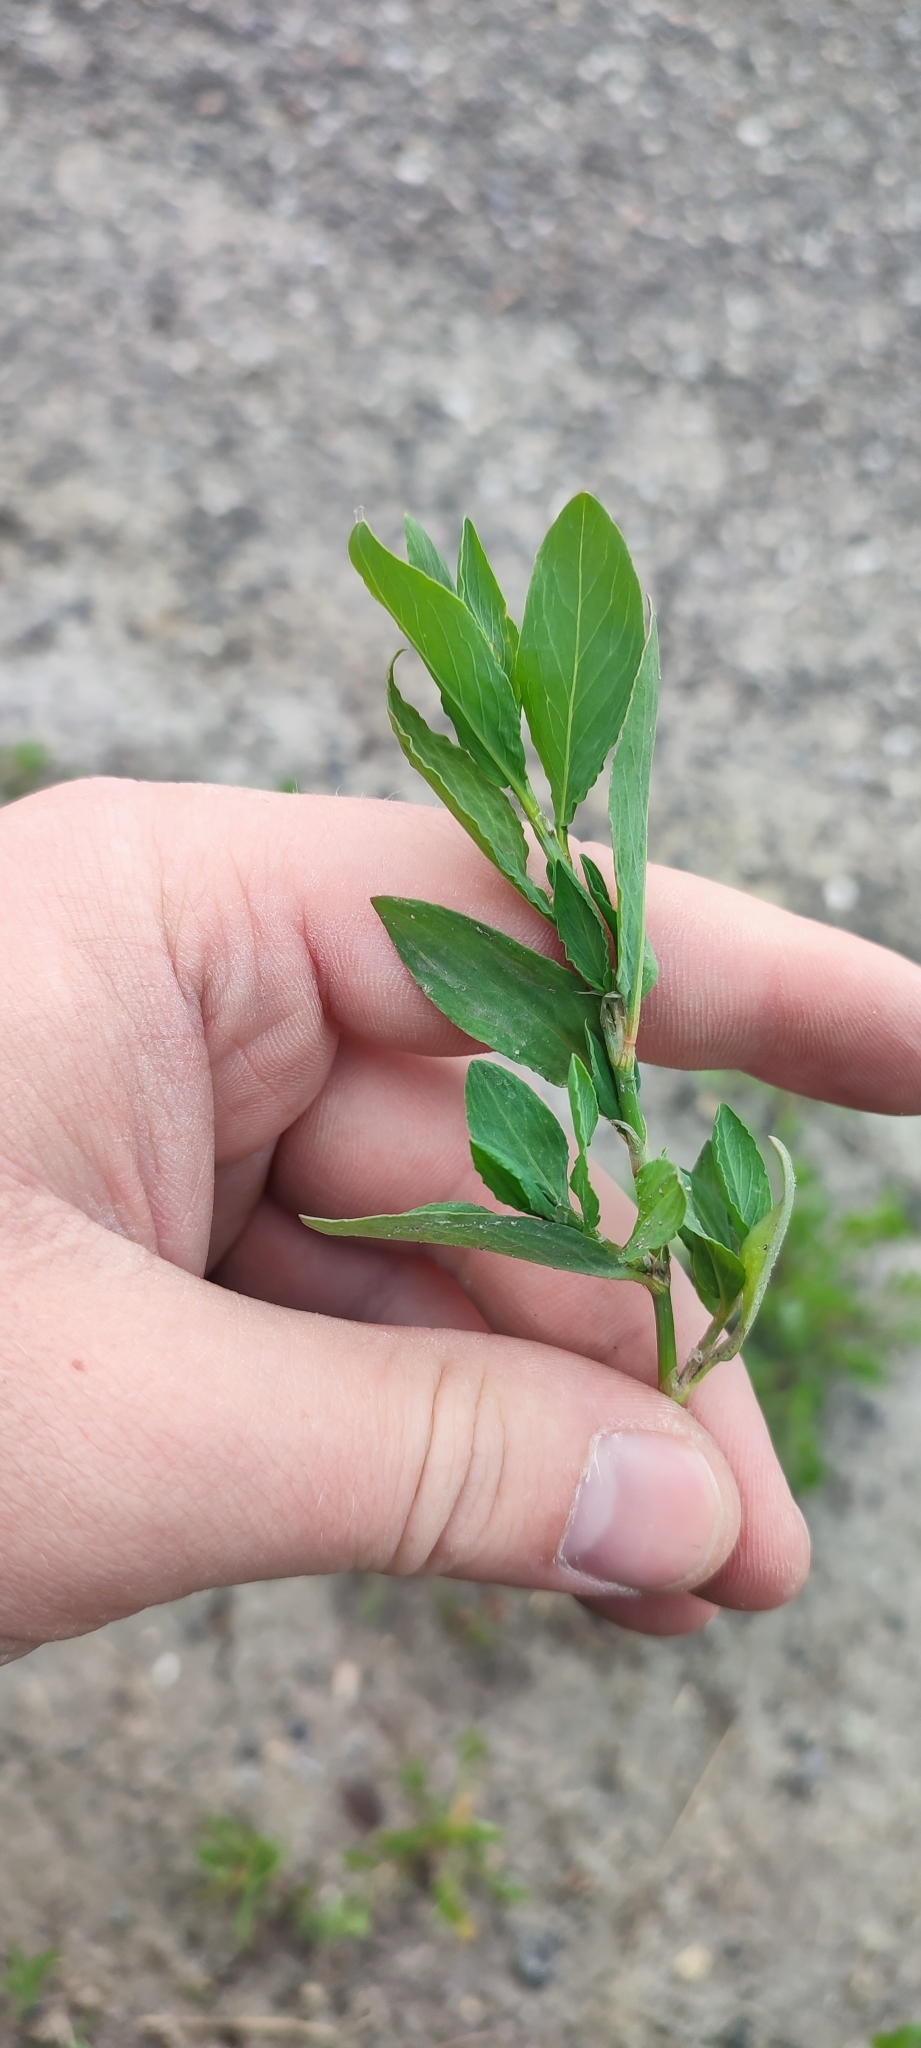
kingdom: Plantae
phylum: Tracheophyta
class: Magnoliopsida
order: Caryophyllales
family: Polygonaceae
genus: Polygonum
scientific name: Polygonum
